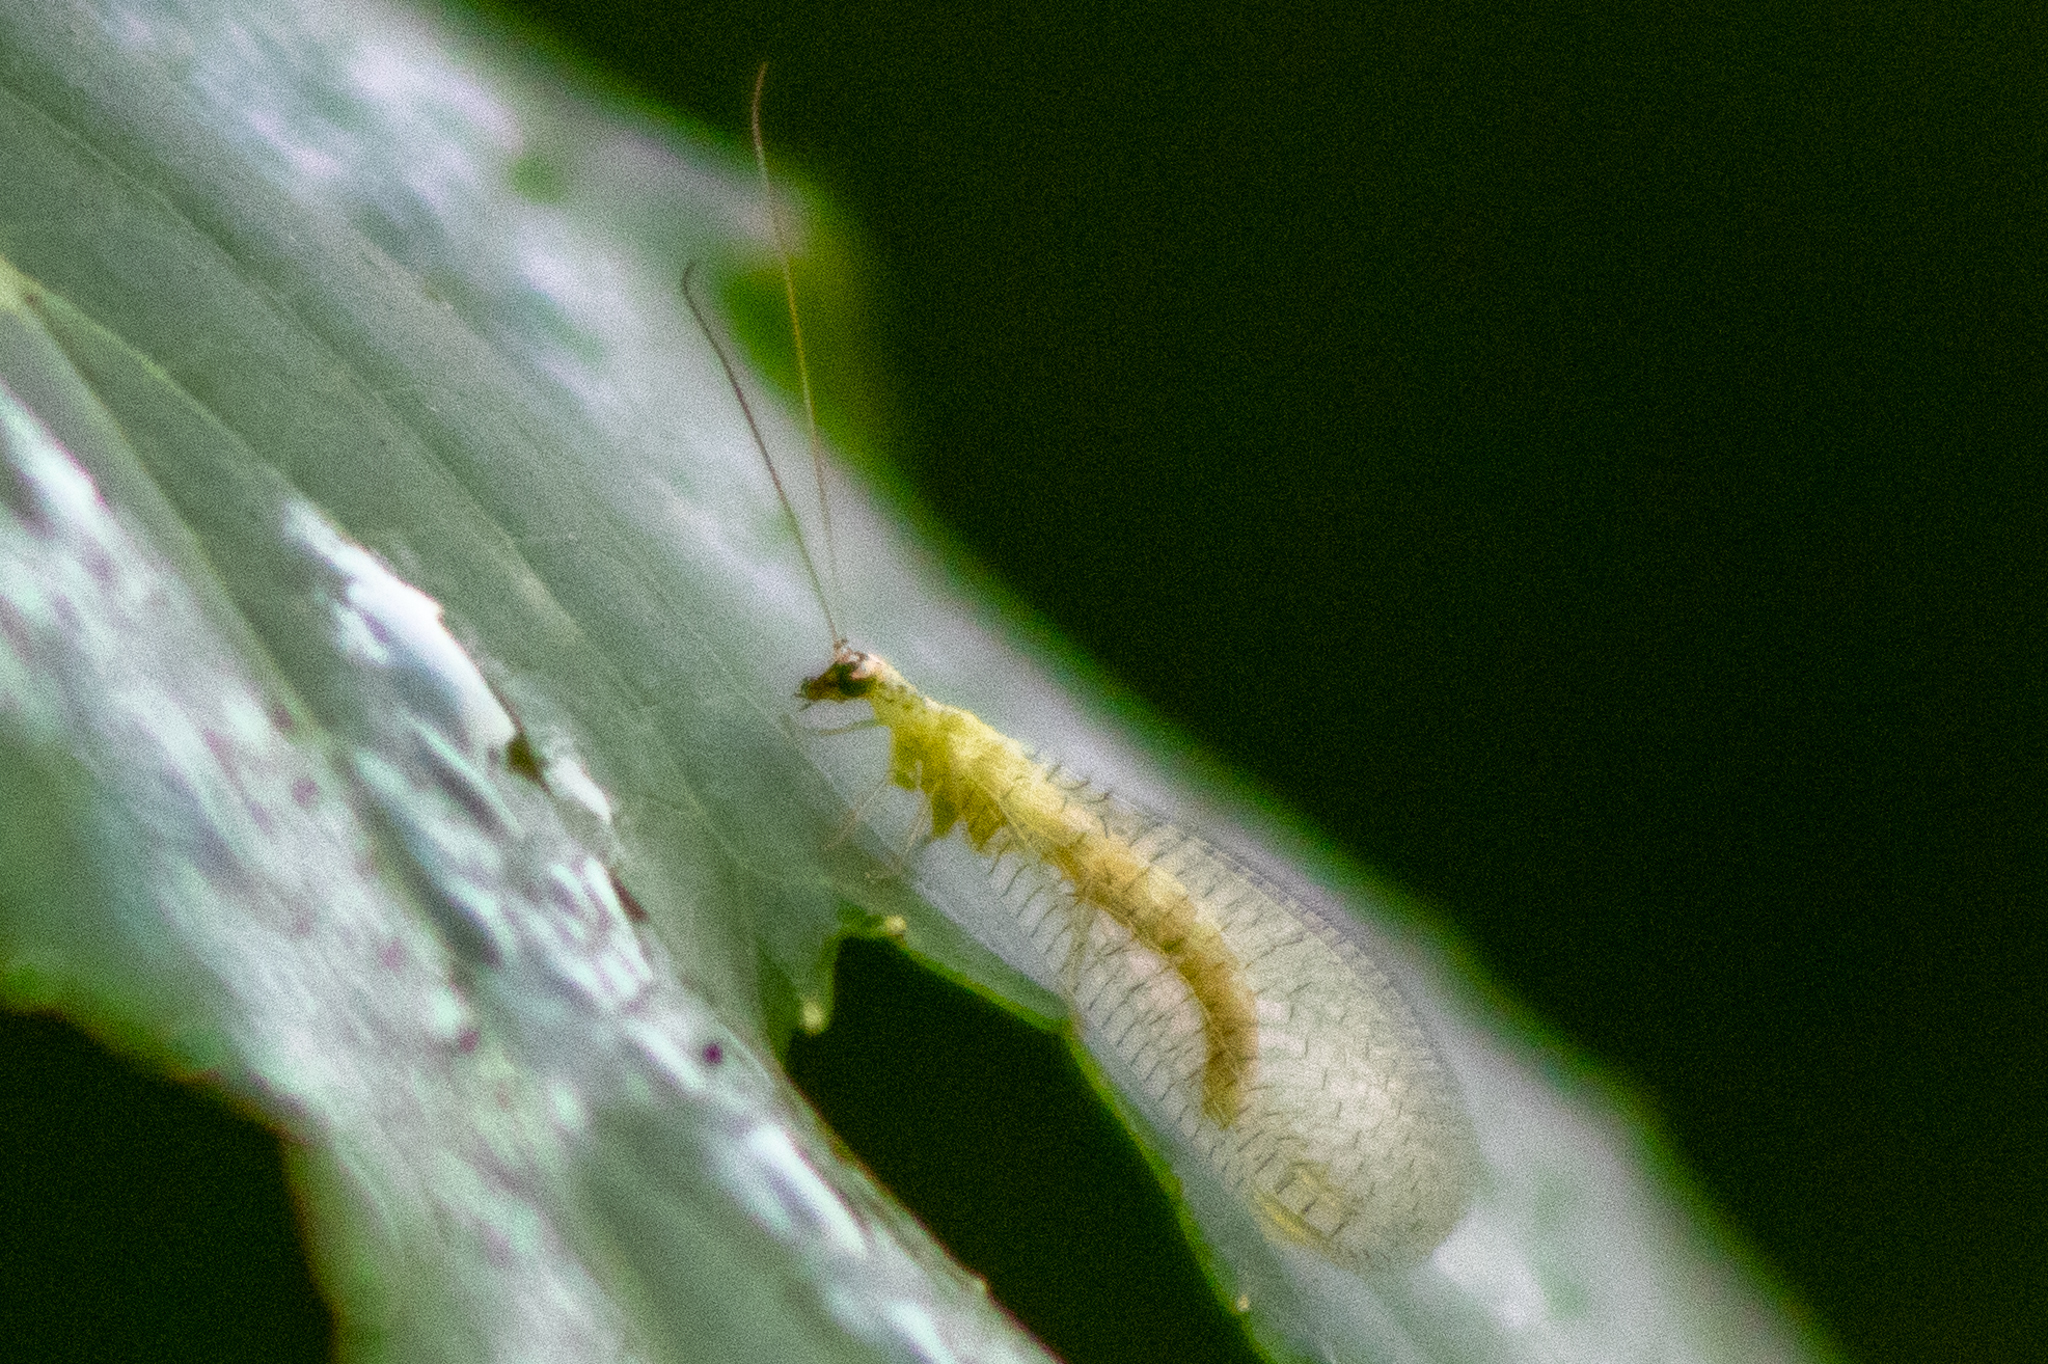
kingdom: Animalia
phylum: Arthropoda
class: Insecta
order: Neuroptera
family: Chrysopidae
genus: Chrysopa
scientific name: Chrysopa oculata
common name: Golden-eyed lacewing
